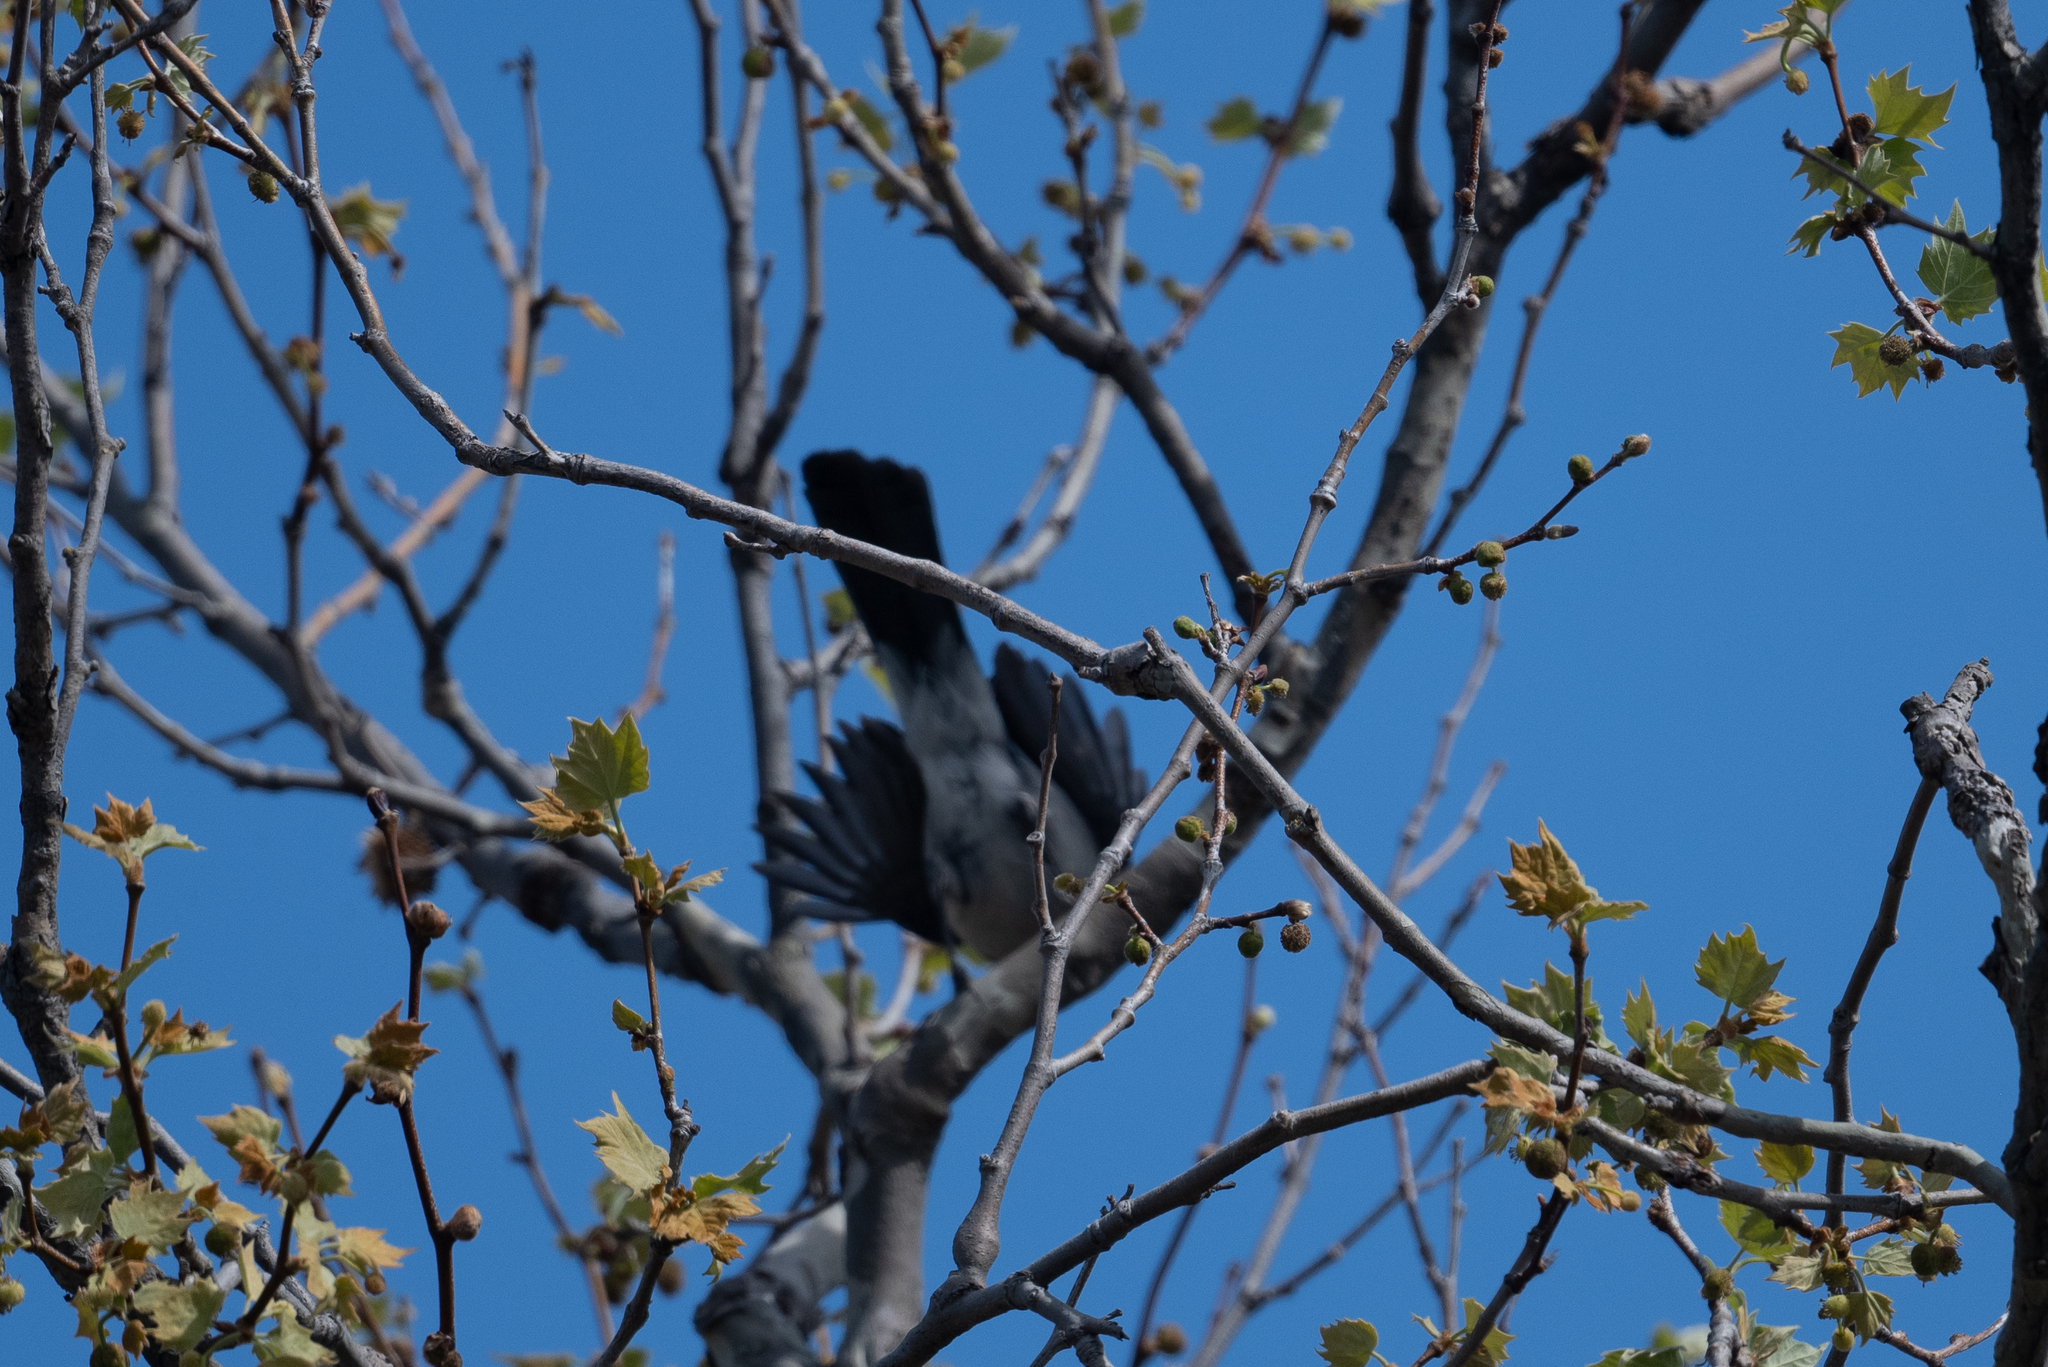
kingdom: Animalia
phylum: Chordata
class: Aves
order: Passeriformes
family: Corvidae
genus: Aphelocoma
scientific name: Aphelocoma californica
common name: California scrub-jay
